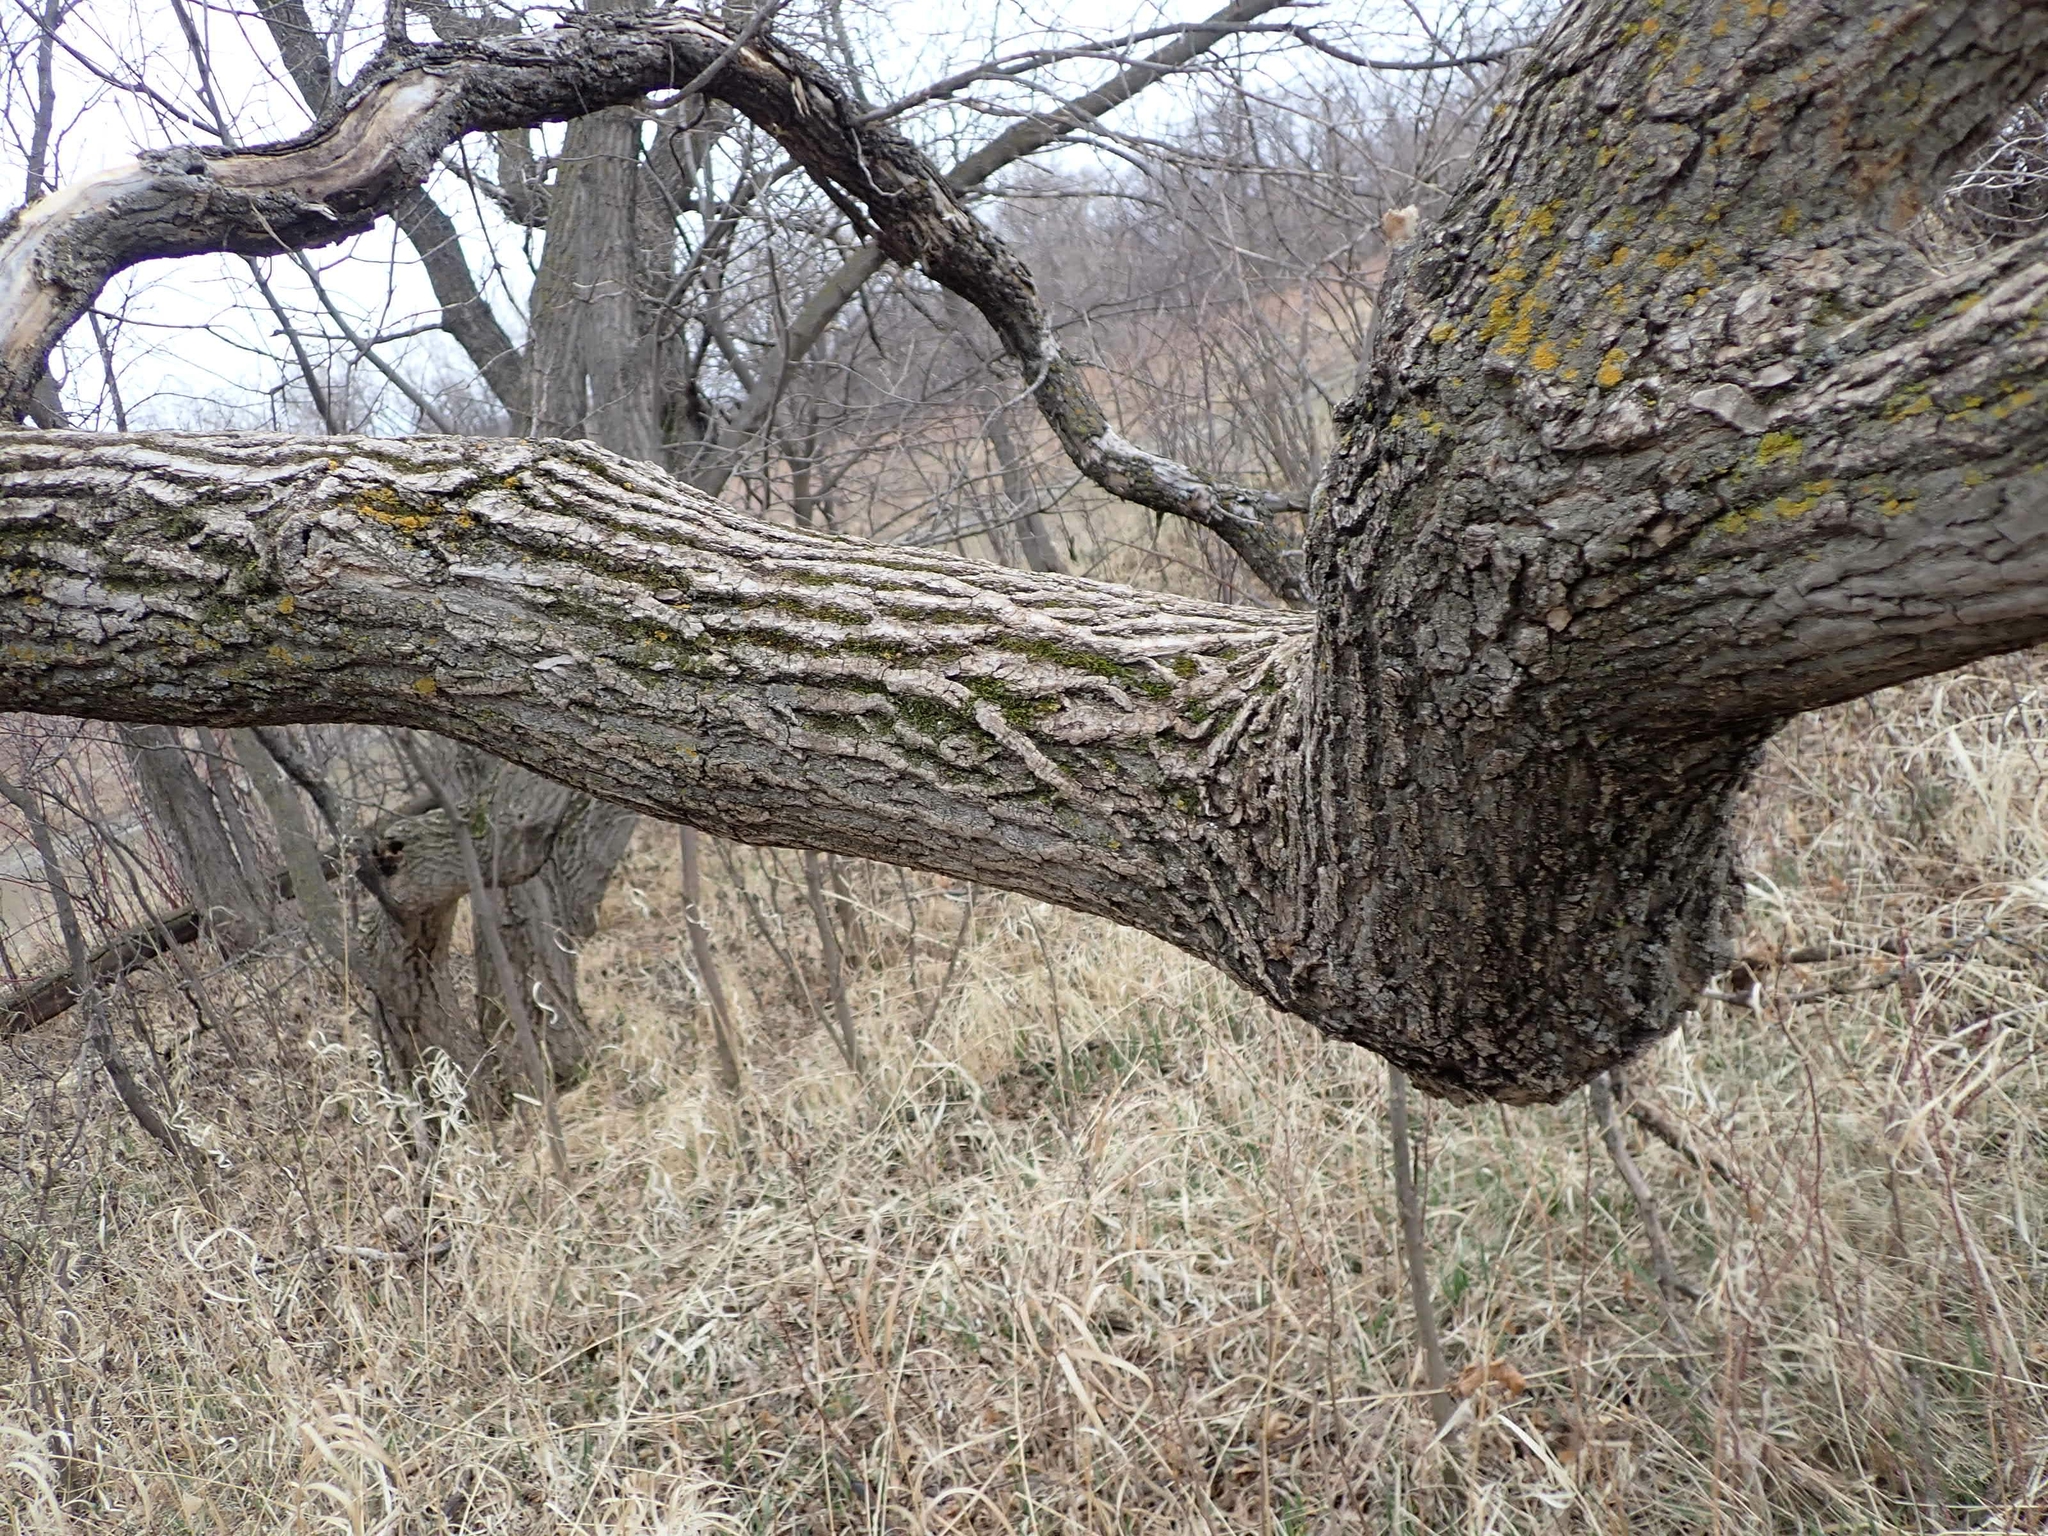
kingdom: Plantae
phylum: Tracheophyta
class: Magnoliopsida
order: Sapindales
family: Sapindaceae
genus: Acer
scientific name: Acer negundo
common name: Ashleaf maple
